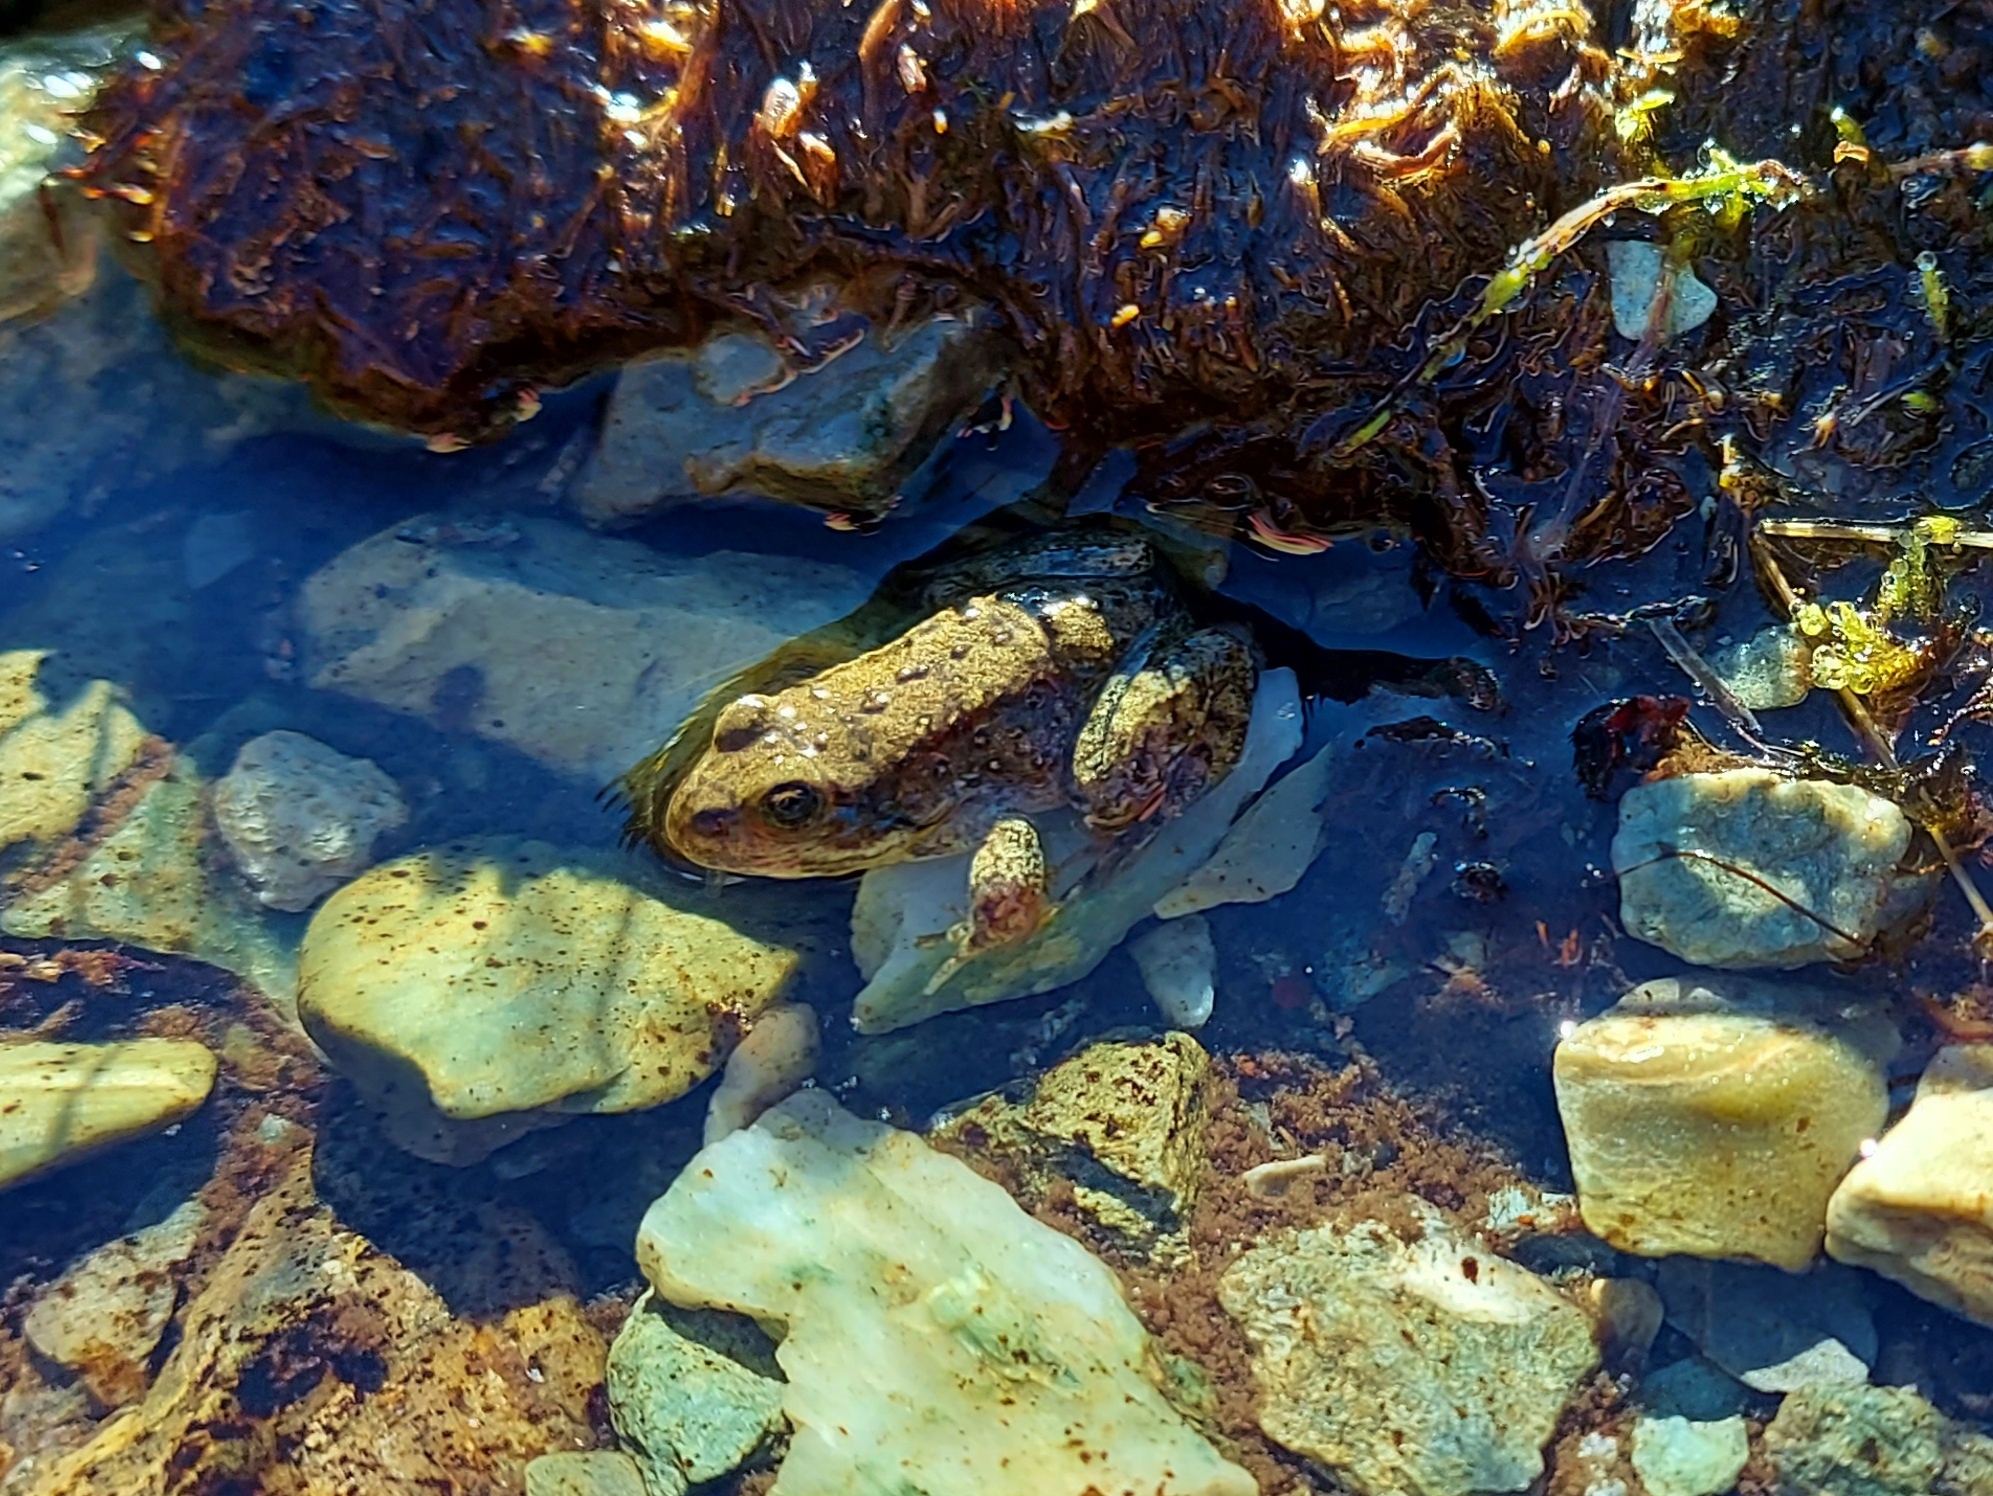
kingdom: Animalia
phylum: Chordata
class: Amphibia
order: Anura
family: Ranidae
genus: Rana
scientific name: Rana luteiventris
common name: Columbia spotted frog
